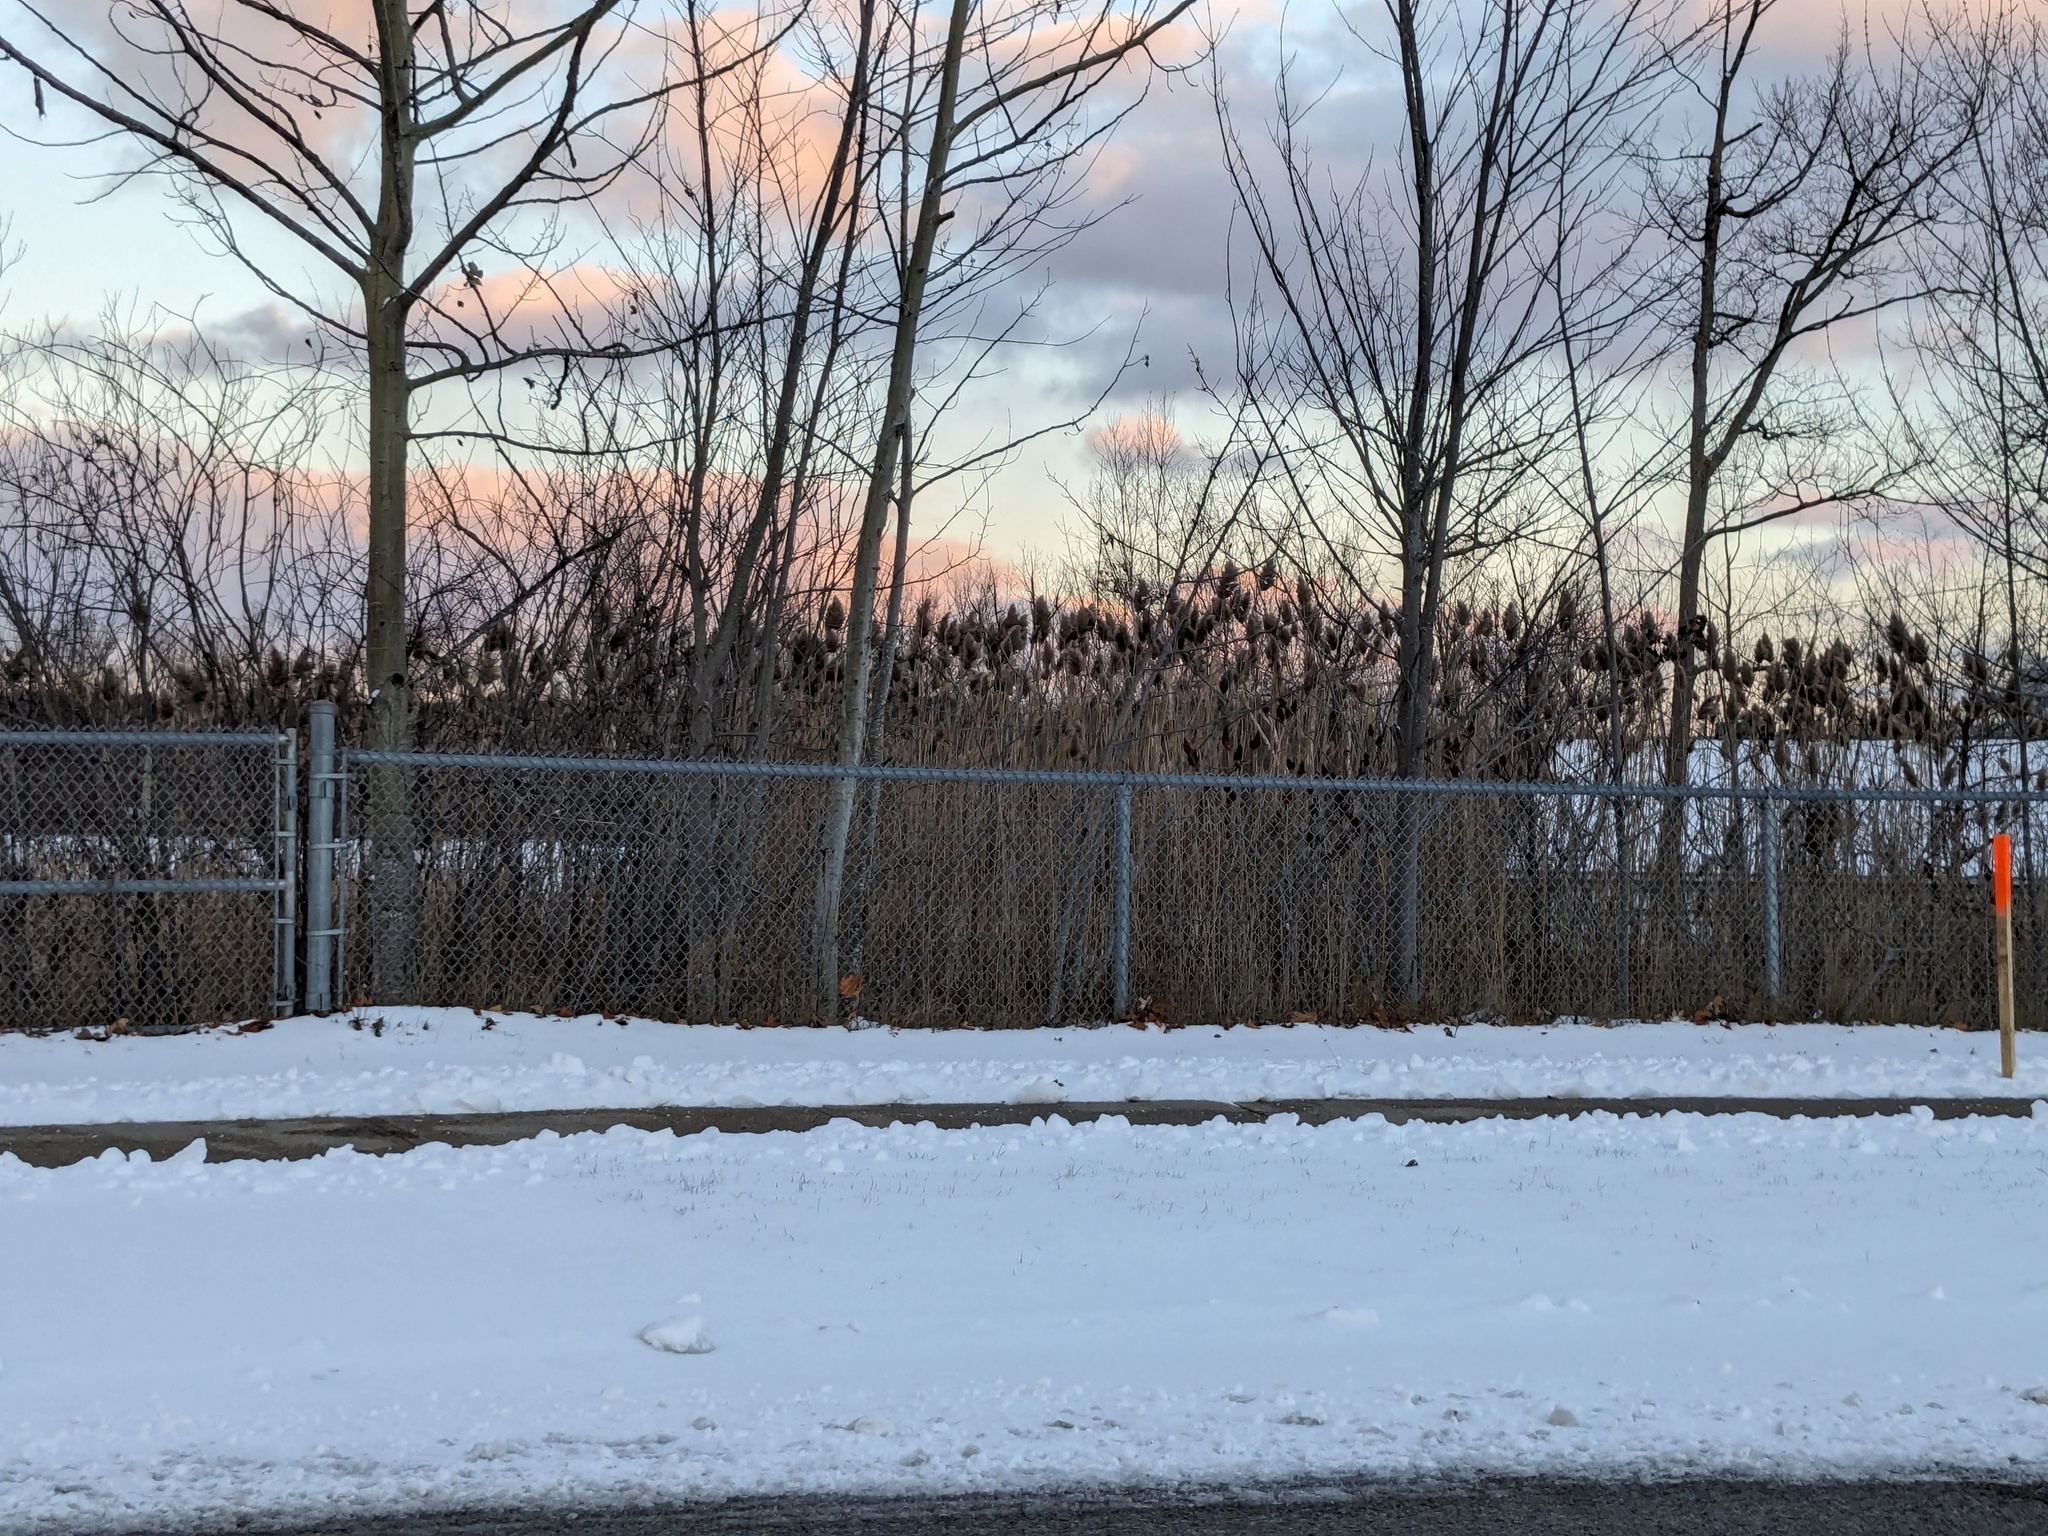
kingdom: Plantae
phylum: Tracheophyta
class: Liliopsida
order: Poales
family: Poaceae
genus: Phragmites
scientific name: Phragmites australis
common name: Common reed
